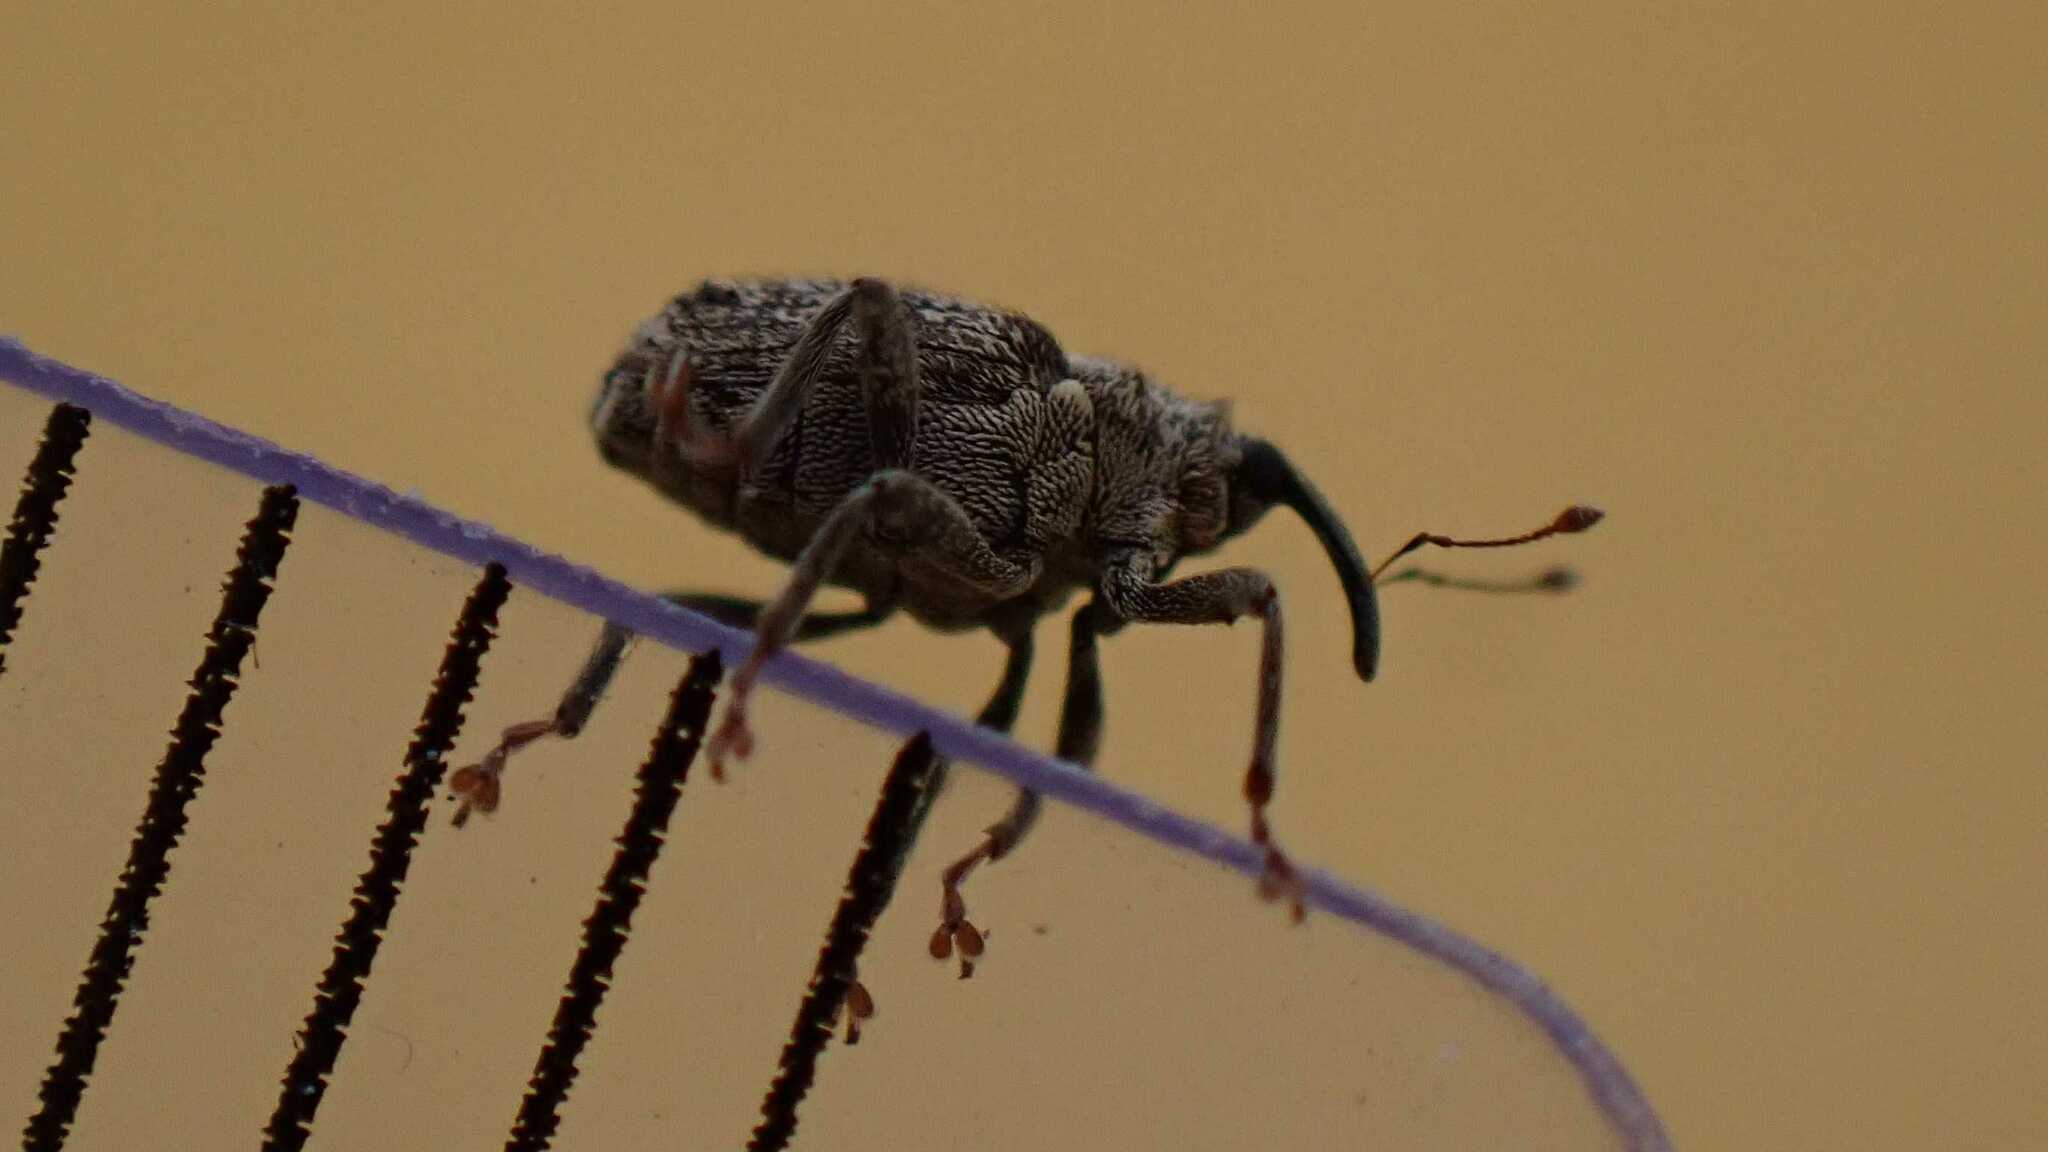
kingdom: Animalia
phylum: Arthropoda
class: Insecta
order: Coleoptera
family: Curculionidae
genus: Ceutorhynchus
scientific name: Ceutorhynchus pallidactylus
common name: Cabbage stem weavil
